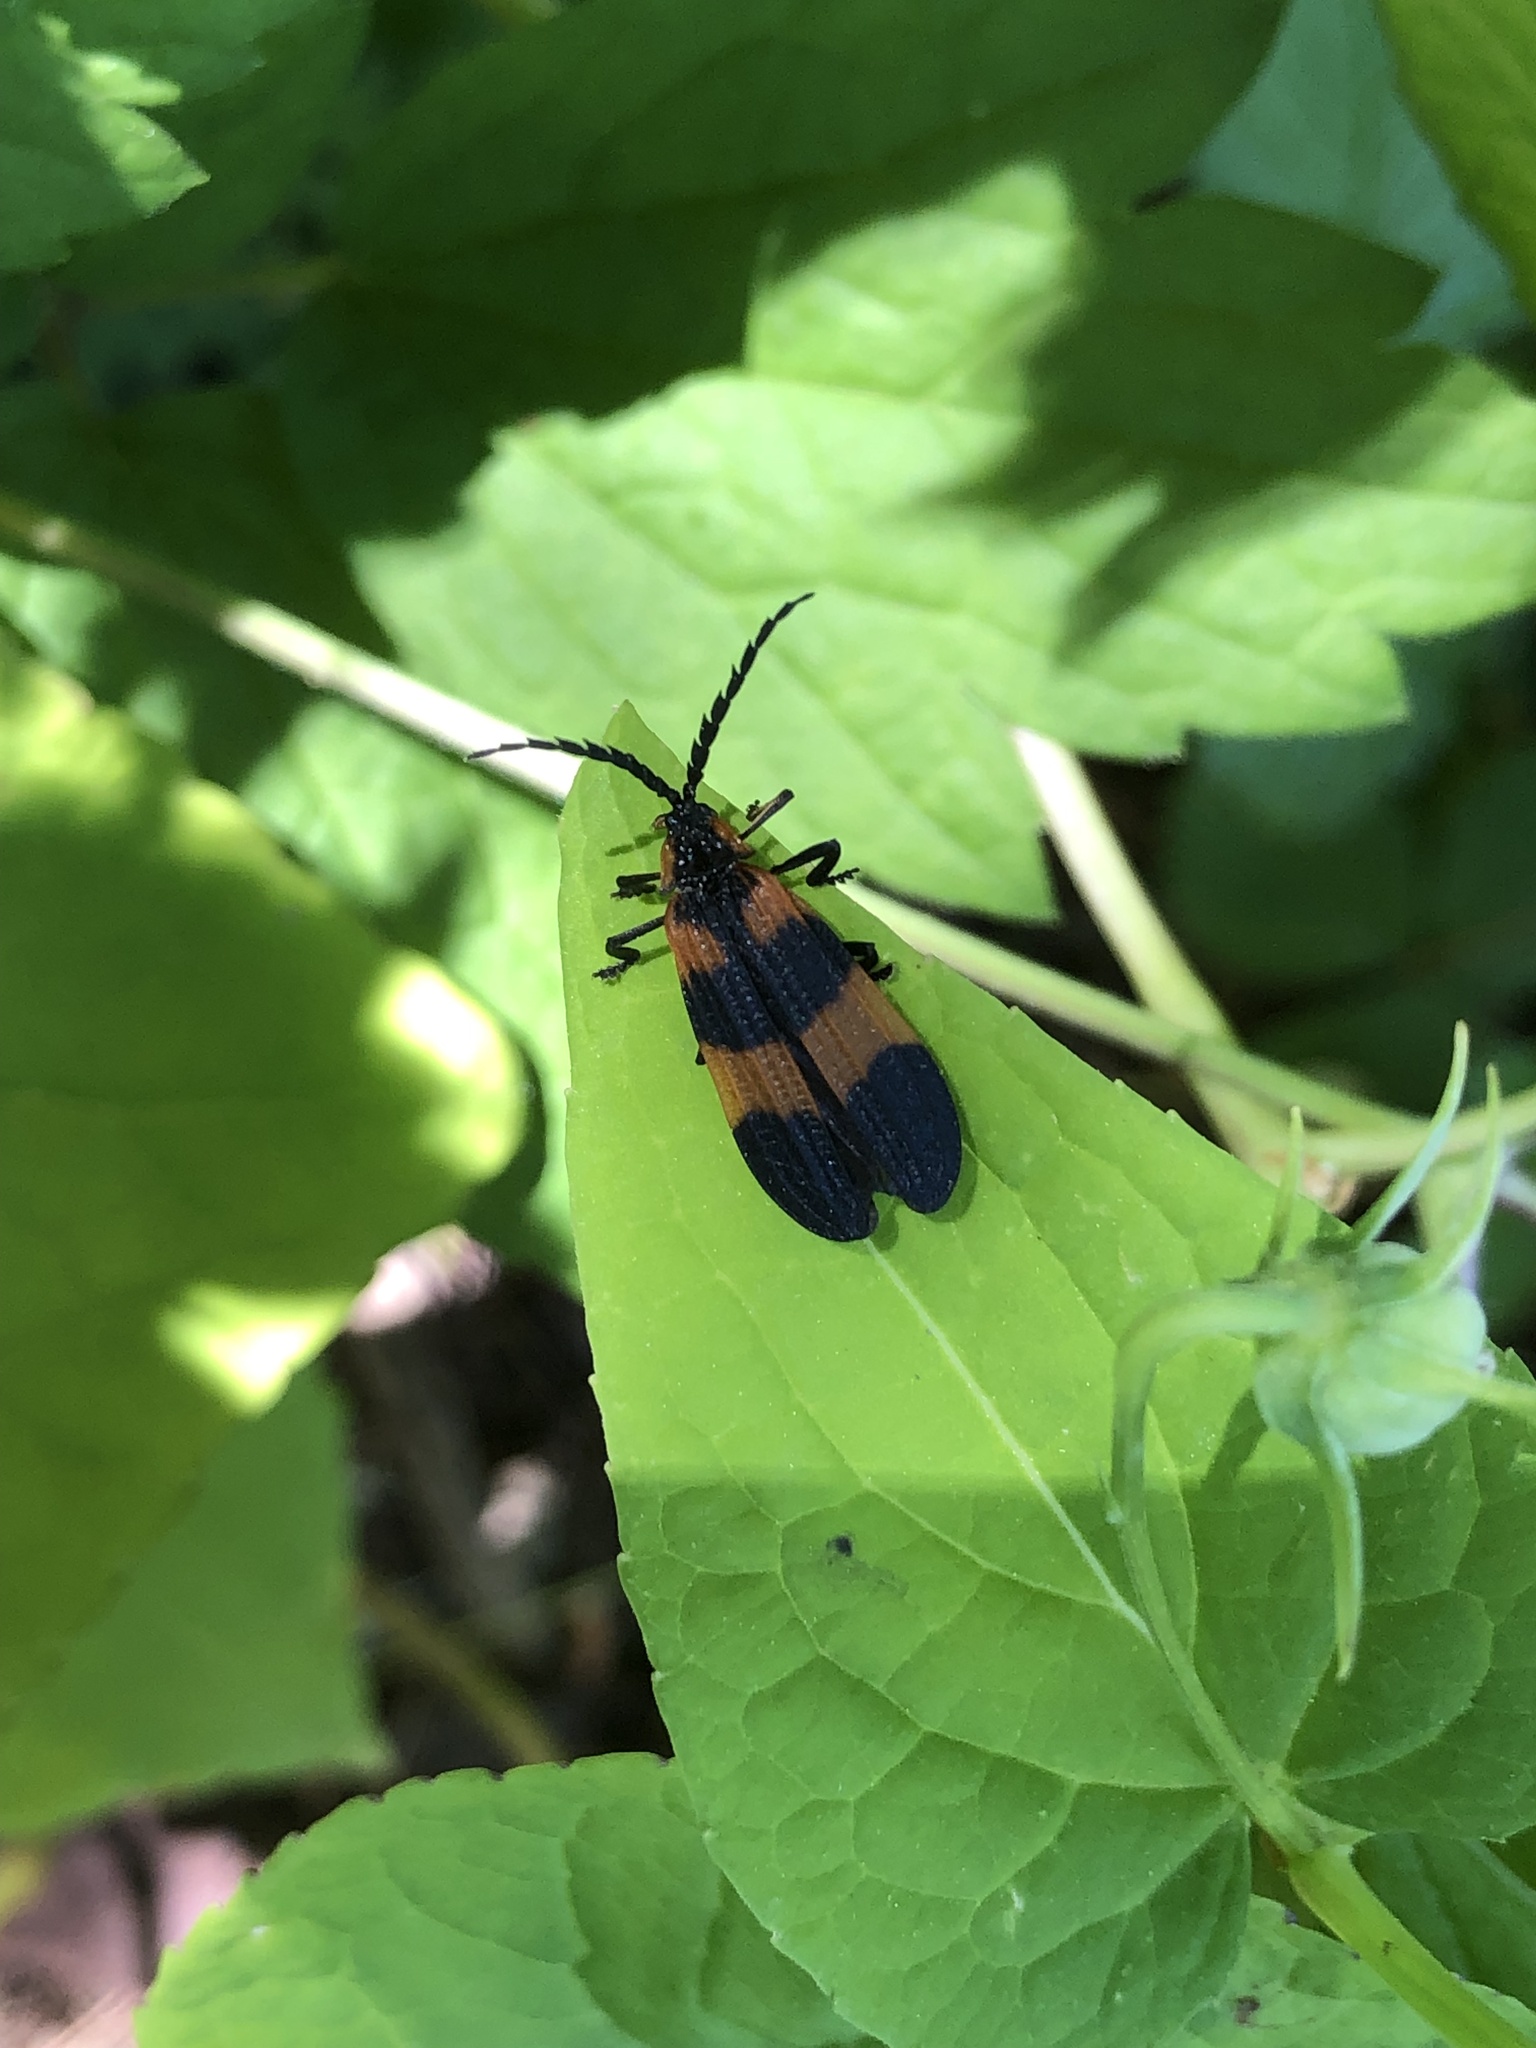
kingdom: Animalia
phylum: Arthropoda
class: Insecta
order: Coleoptera
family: Lycidae
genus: Calopteron
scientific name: Calopteron discrepans
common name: Banded net-winged beetle
